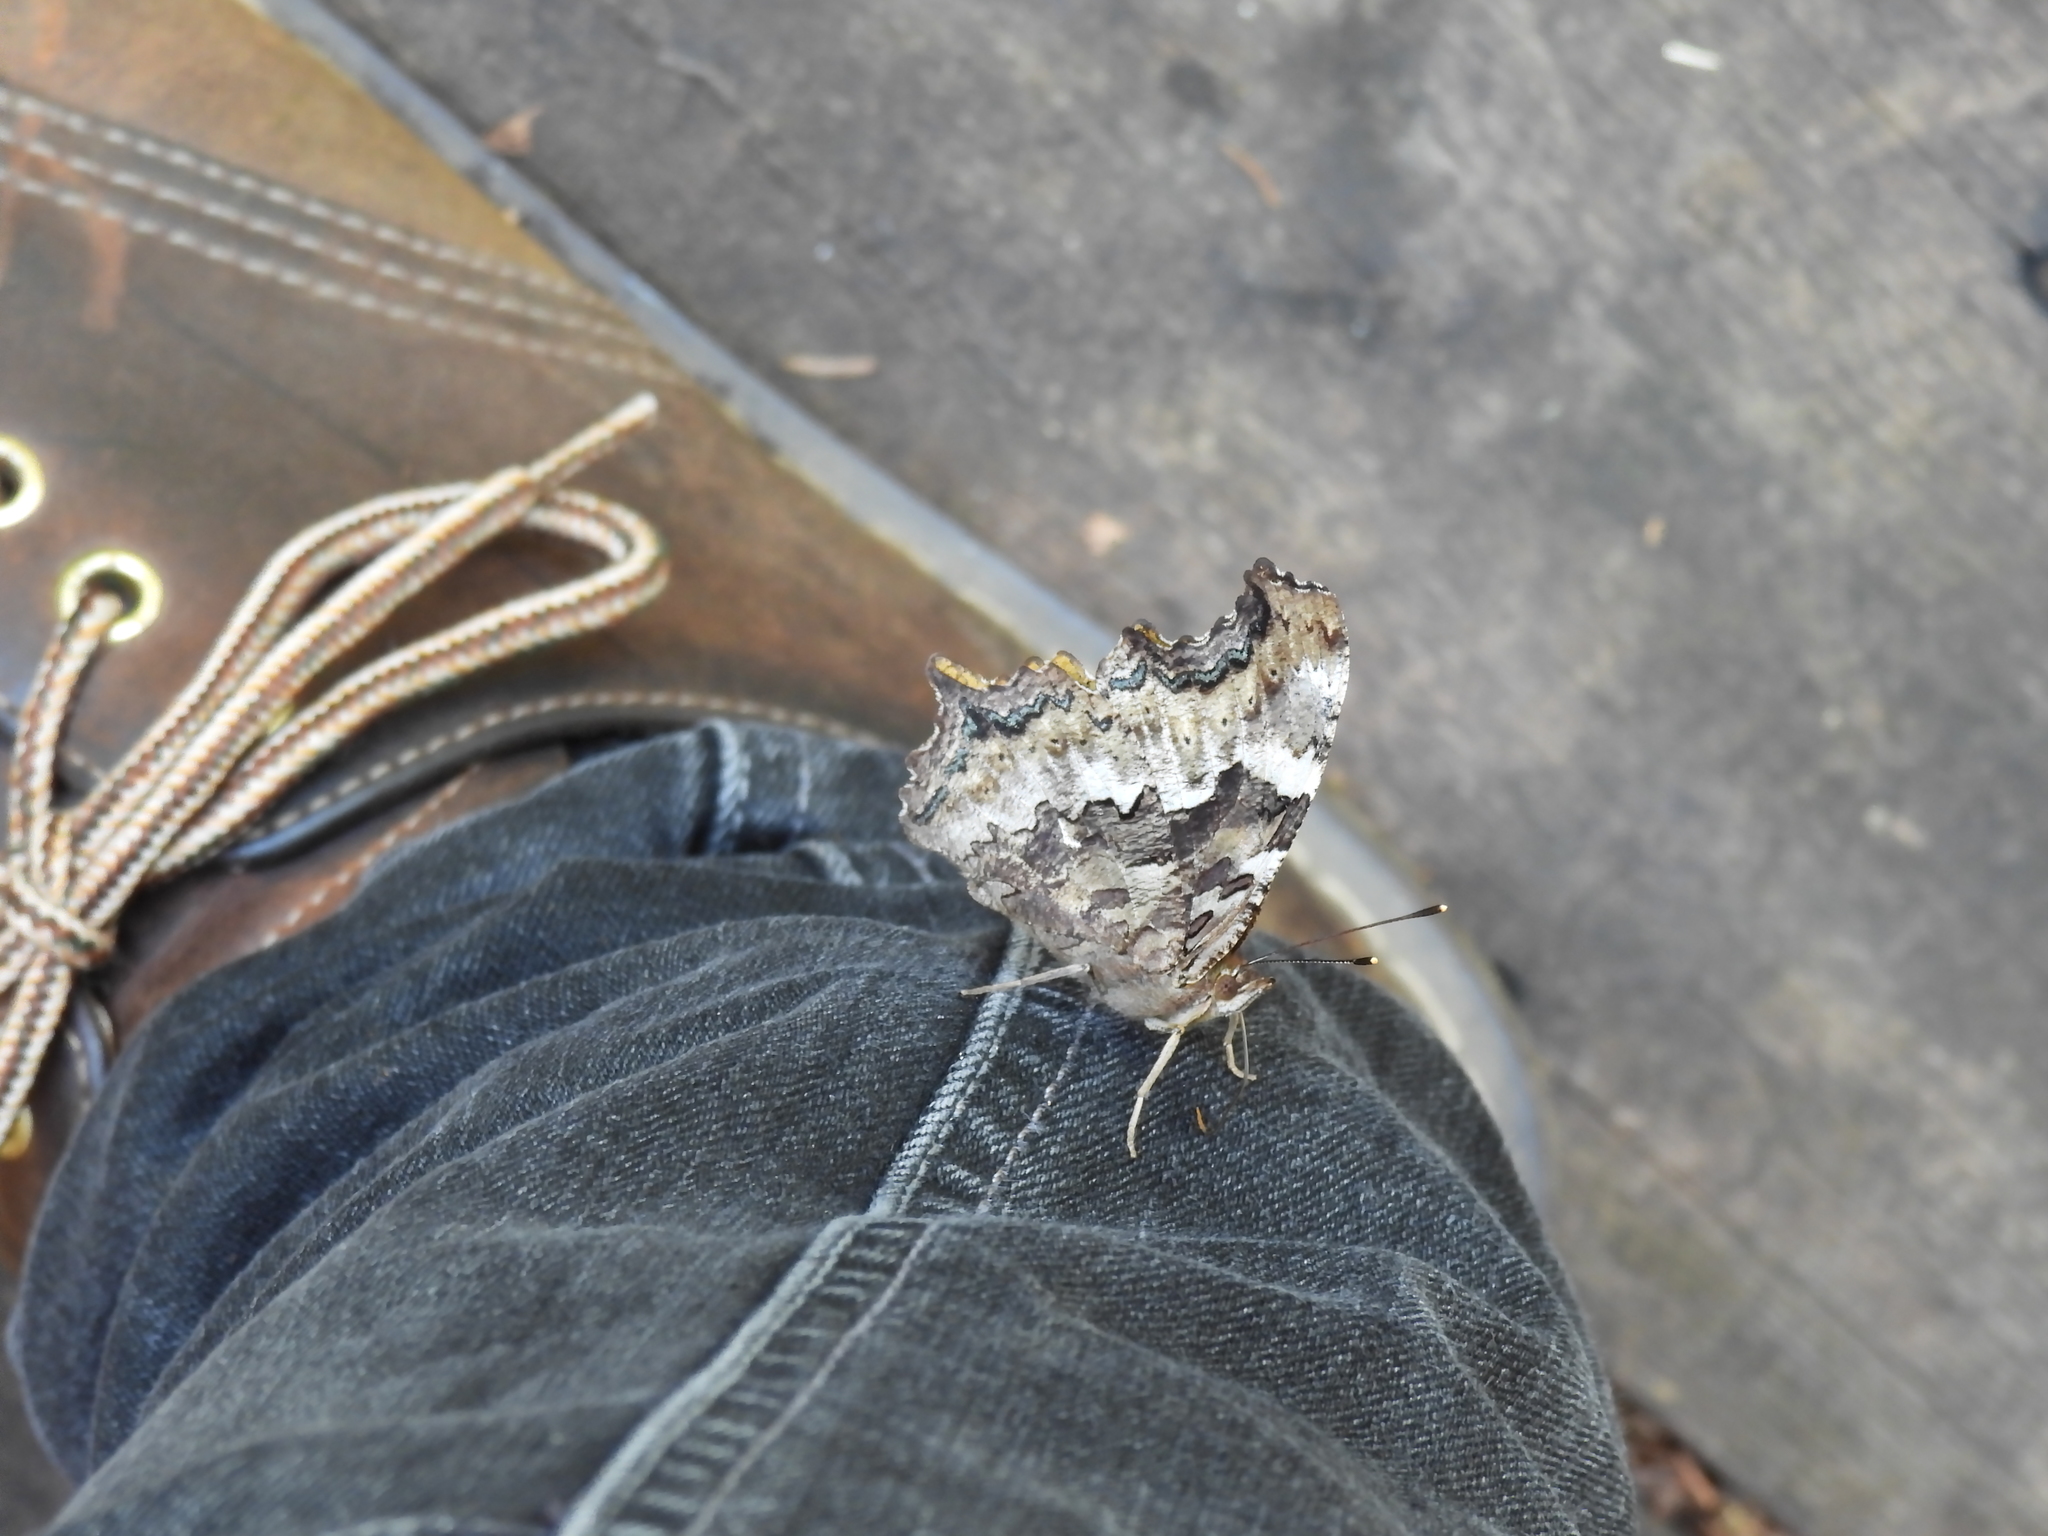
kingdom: Animalia
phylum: Arthropoda
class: Insecta
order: Lepidoptera
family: Nymphalidae
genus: Polygonia
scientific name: Polygonia vaualbum
